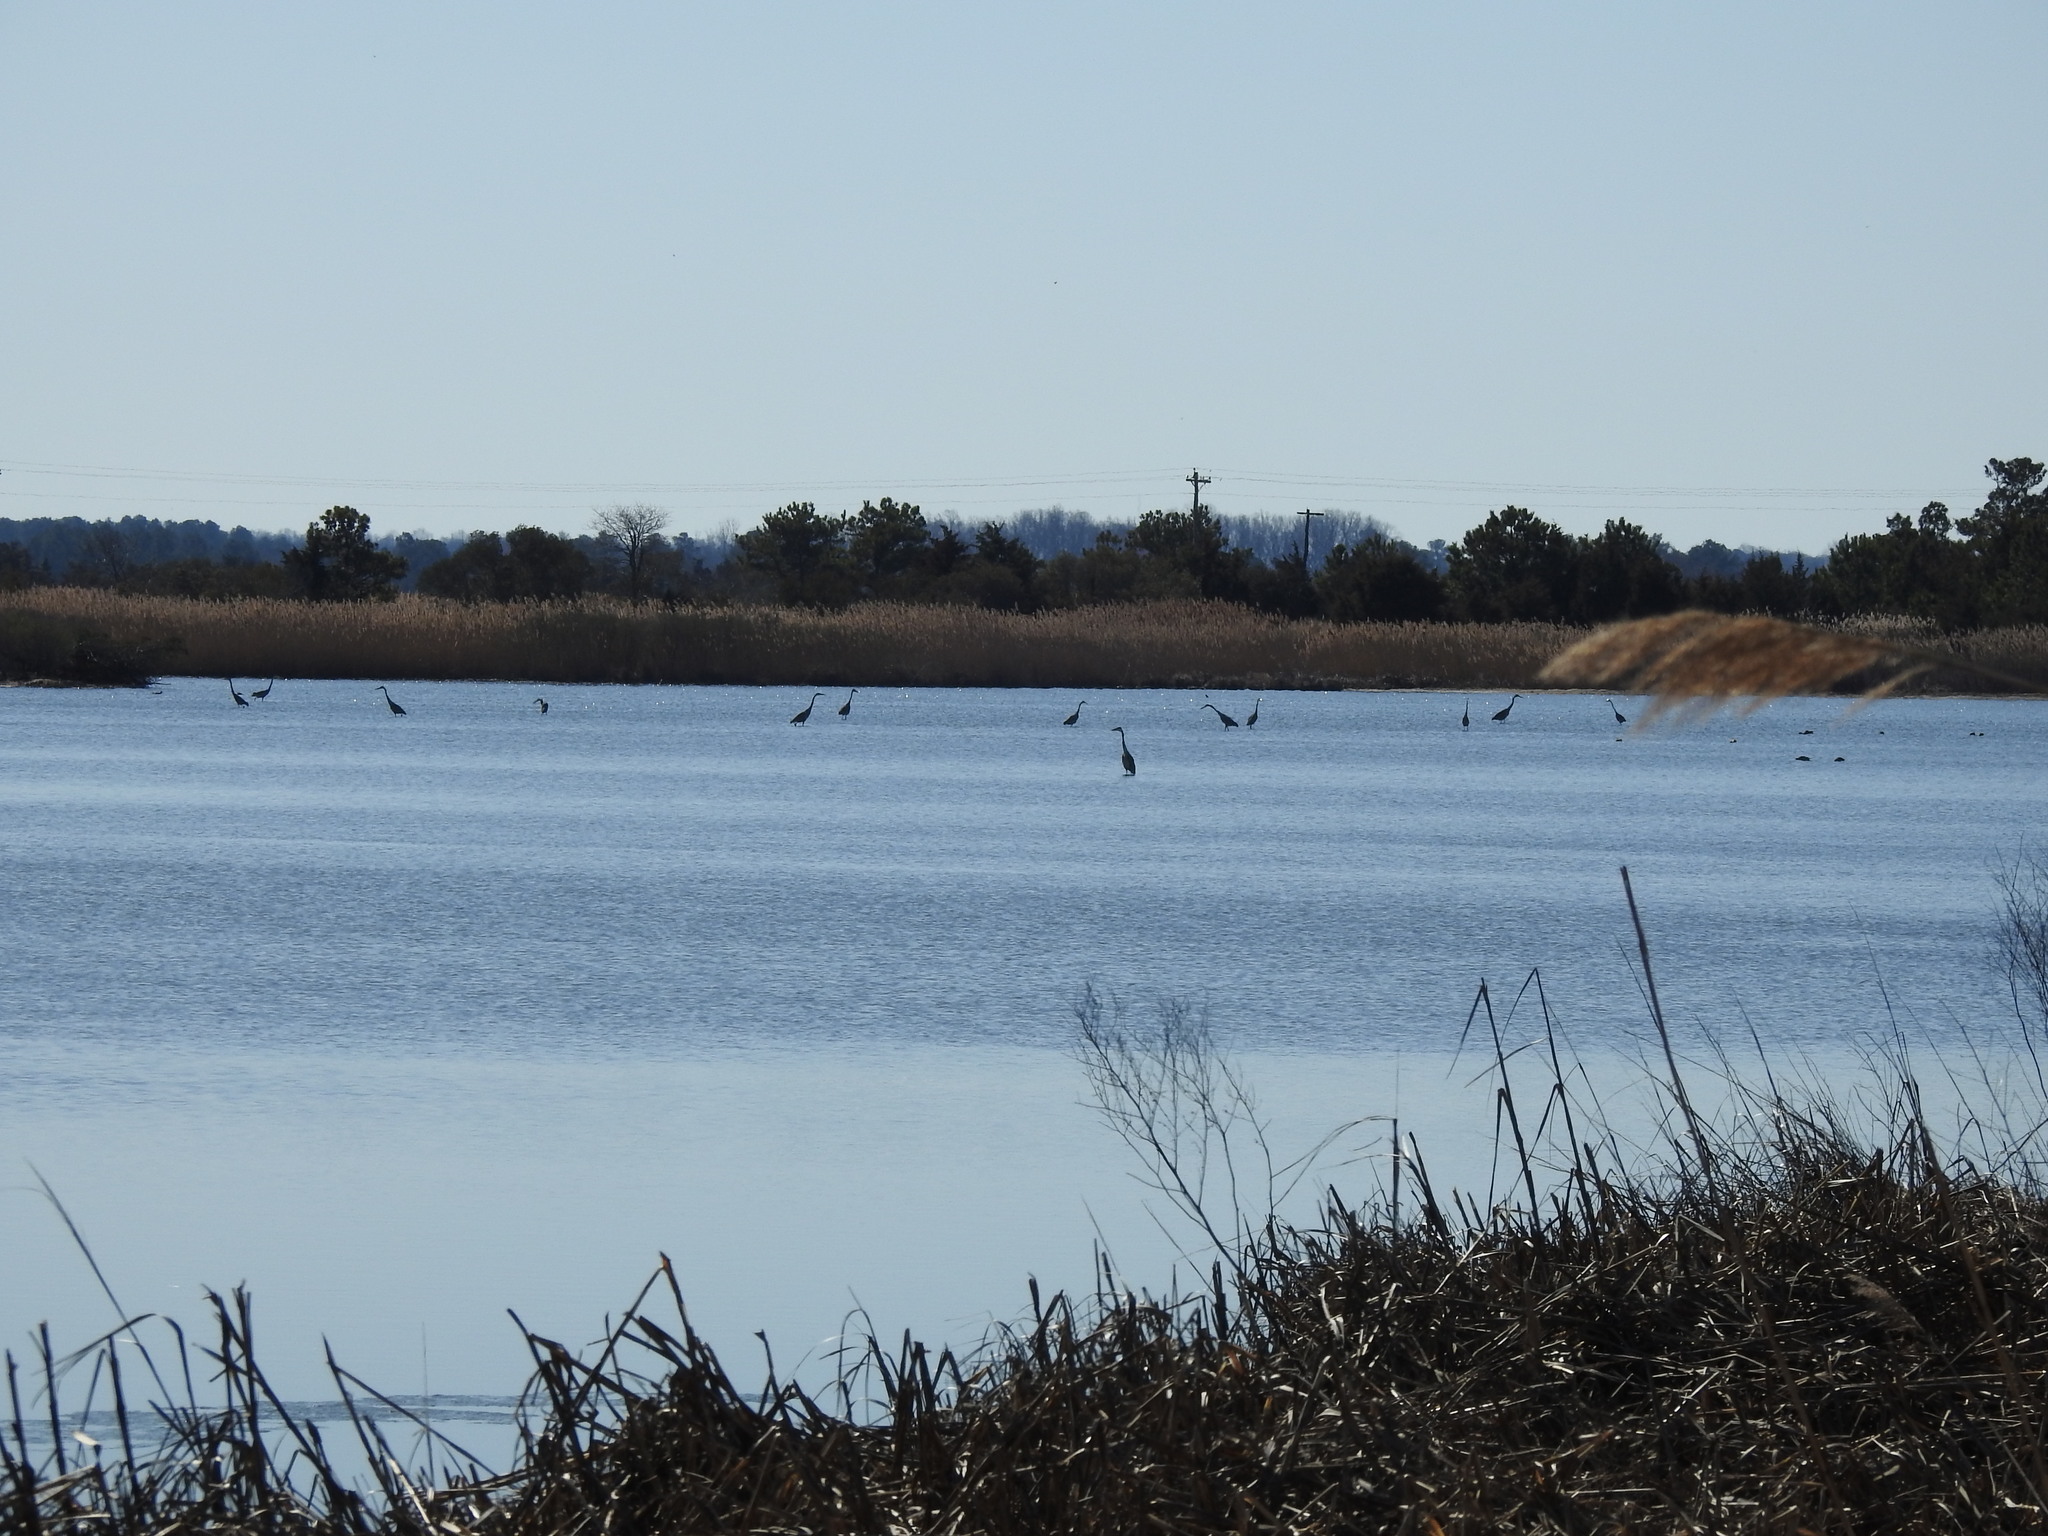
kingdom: Animalia
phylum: Chordata
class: Aves
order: Pelecaniformes
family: Ardeidae
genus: Ardea
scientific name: Ardea herodias
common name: Great blue heron
